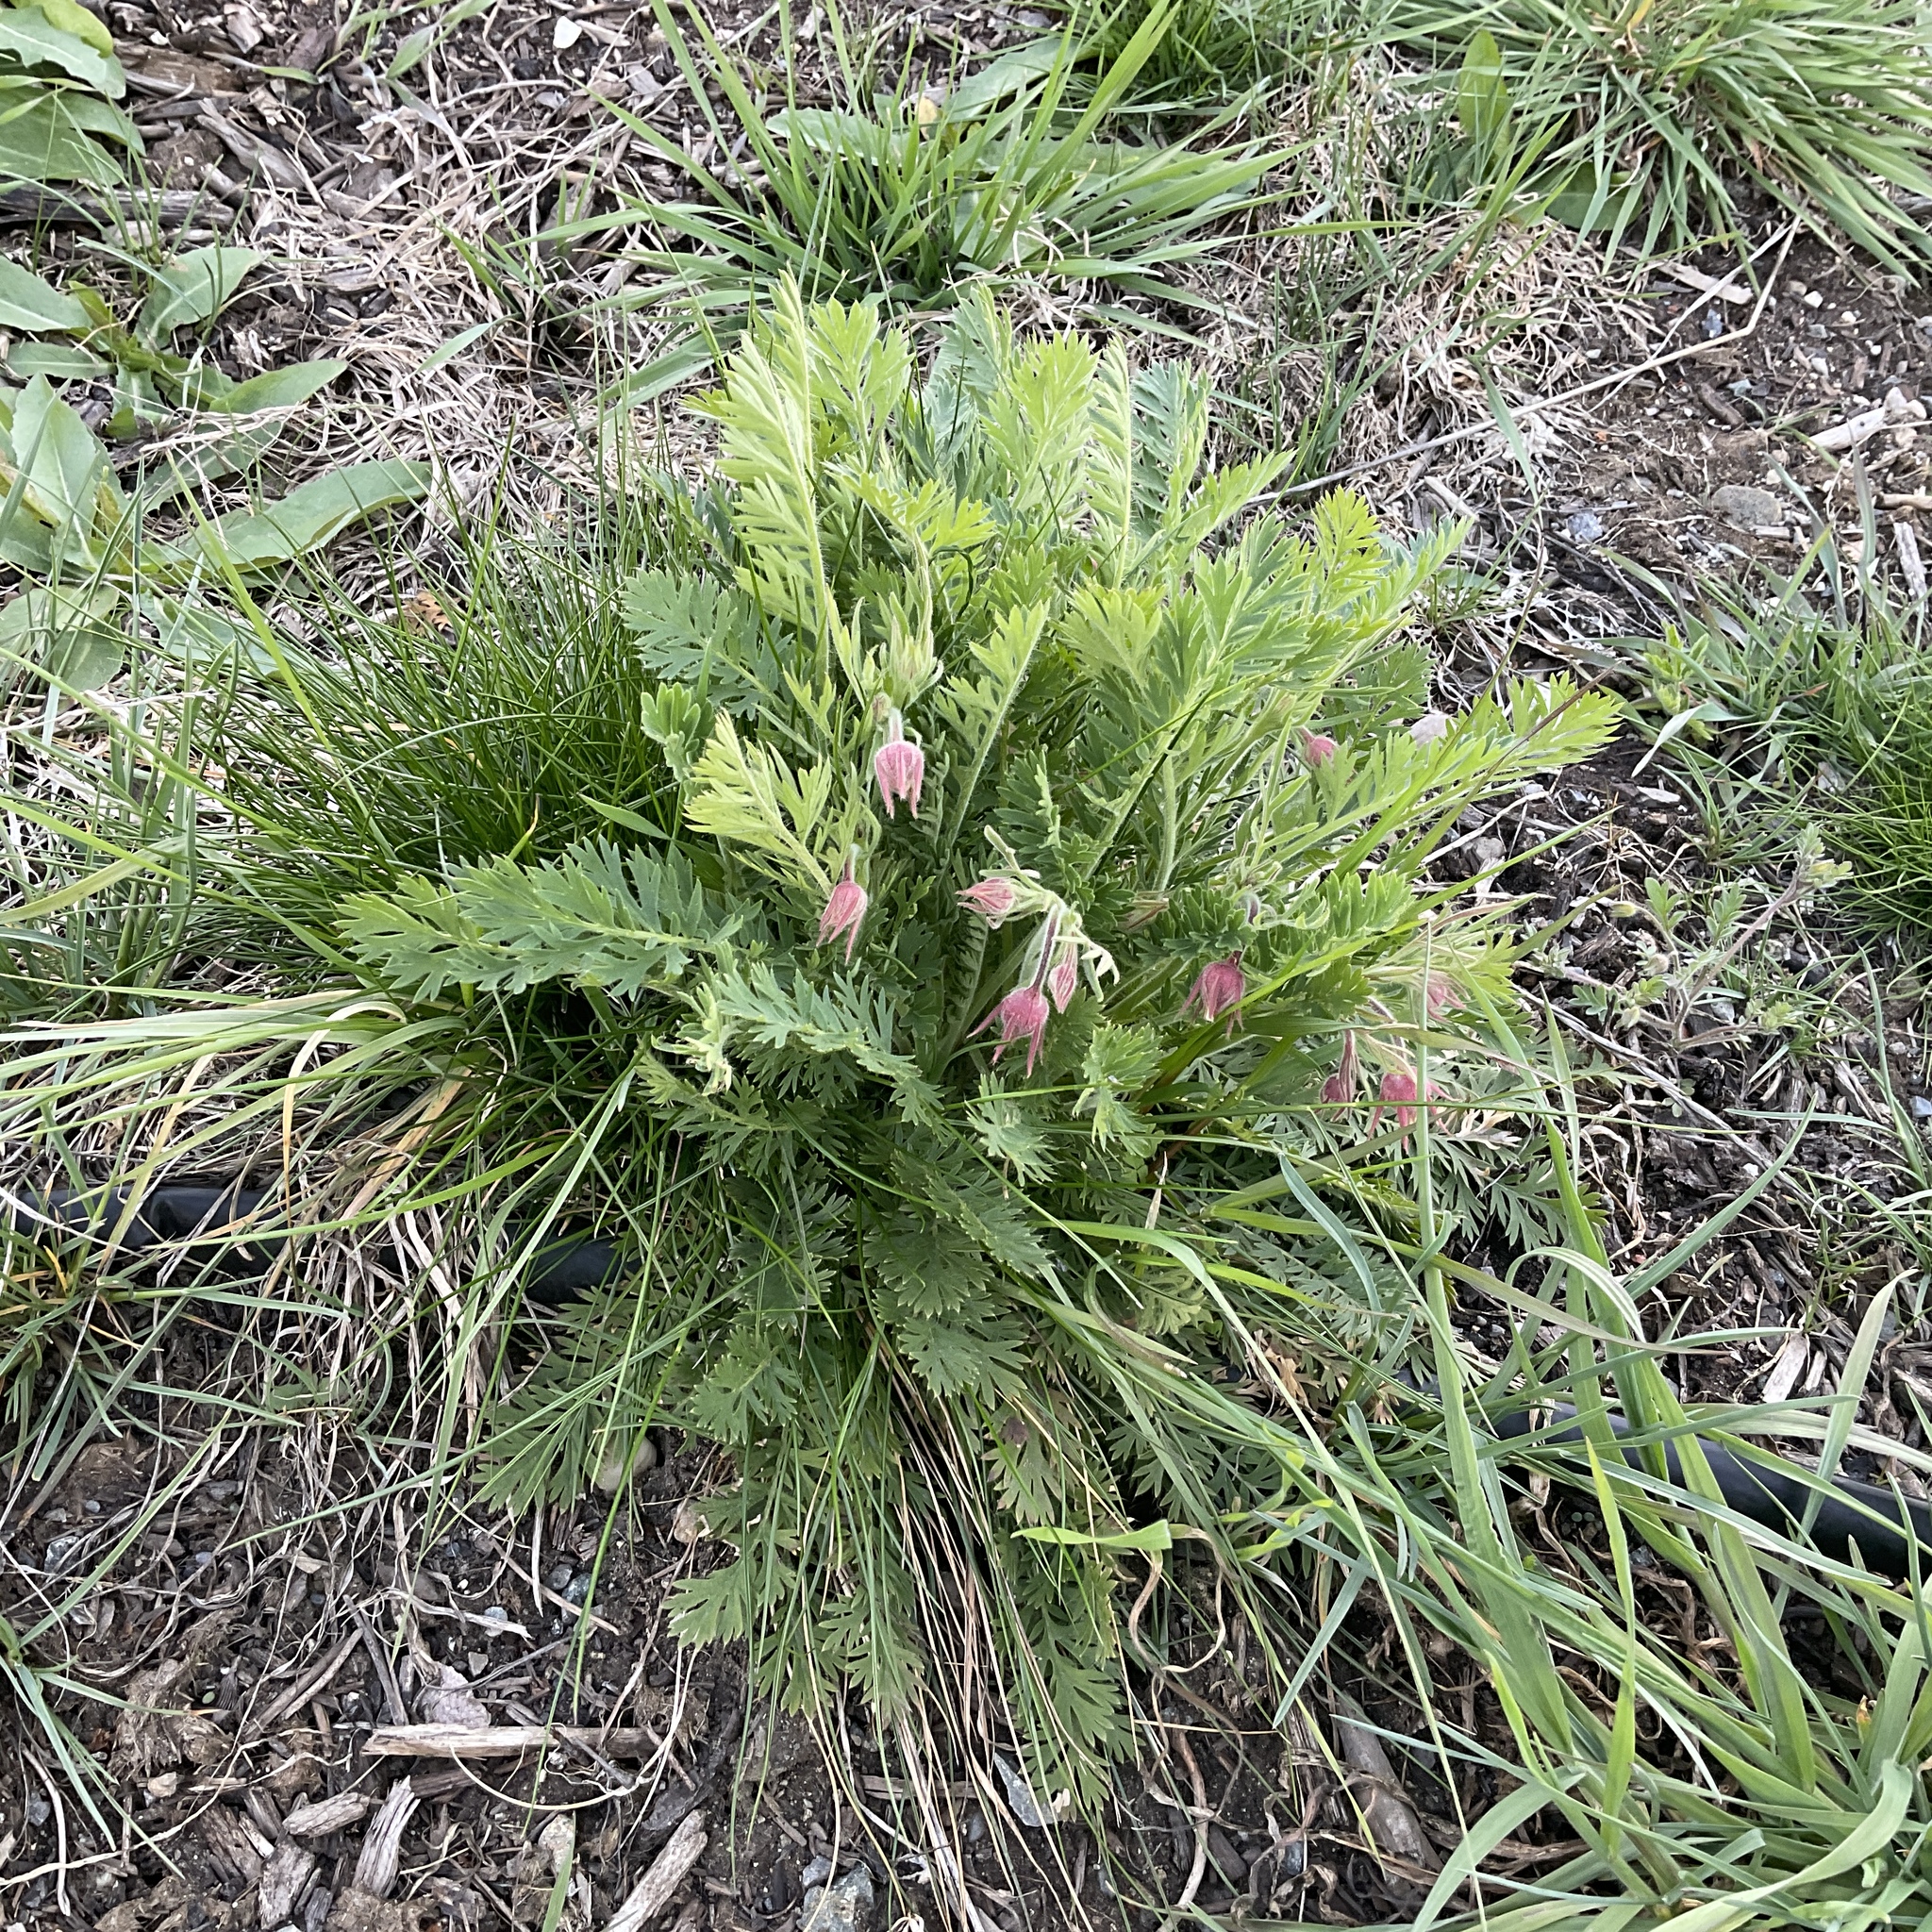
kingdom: Plantae
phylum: Tracheophyta
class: Magnoliopsida
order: Rosales
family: Rosaceae
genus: Geum
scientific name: Geum triflorum
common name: Old man's whiskers
